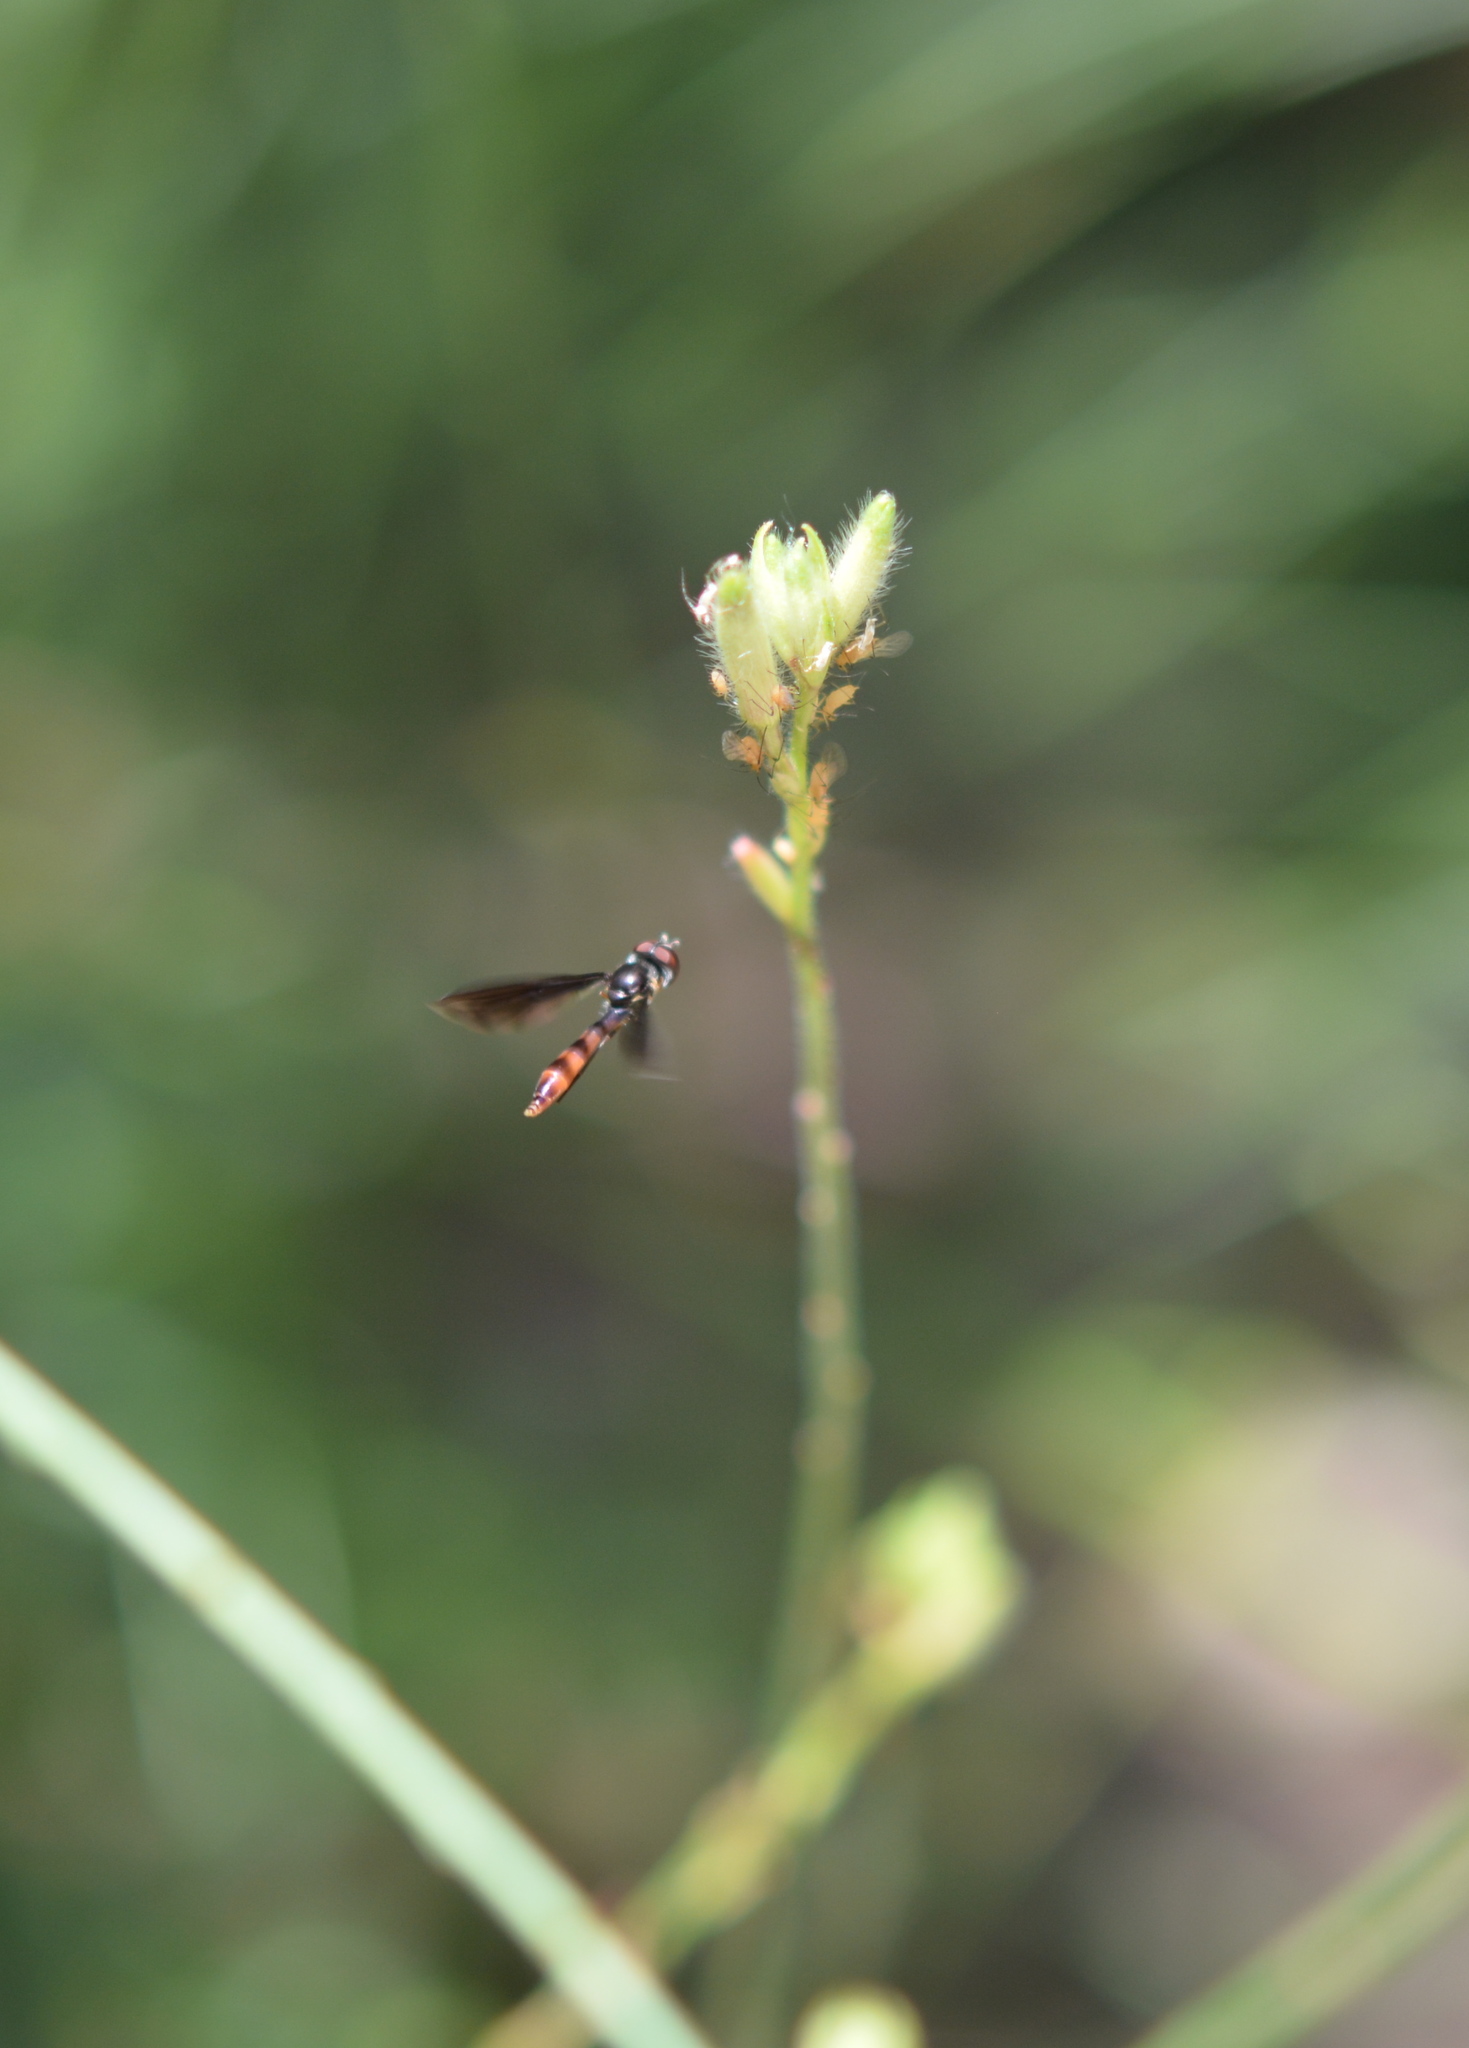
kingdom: Animalia
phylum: Arthropoda
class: Insecta
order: Diptera
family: Syrphidae
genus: Ocyptamus
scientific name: Ocyptamus fuscipennis
